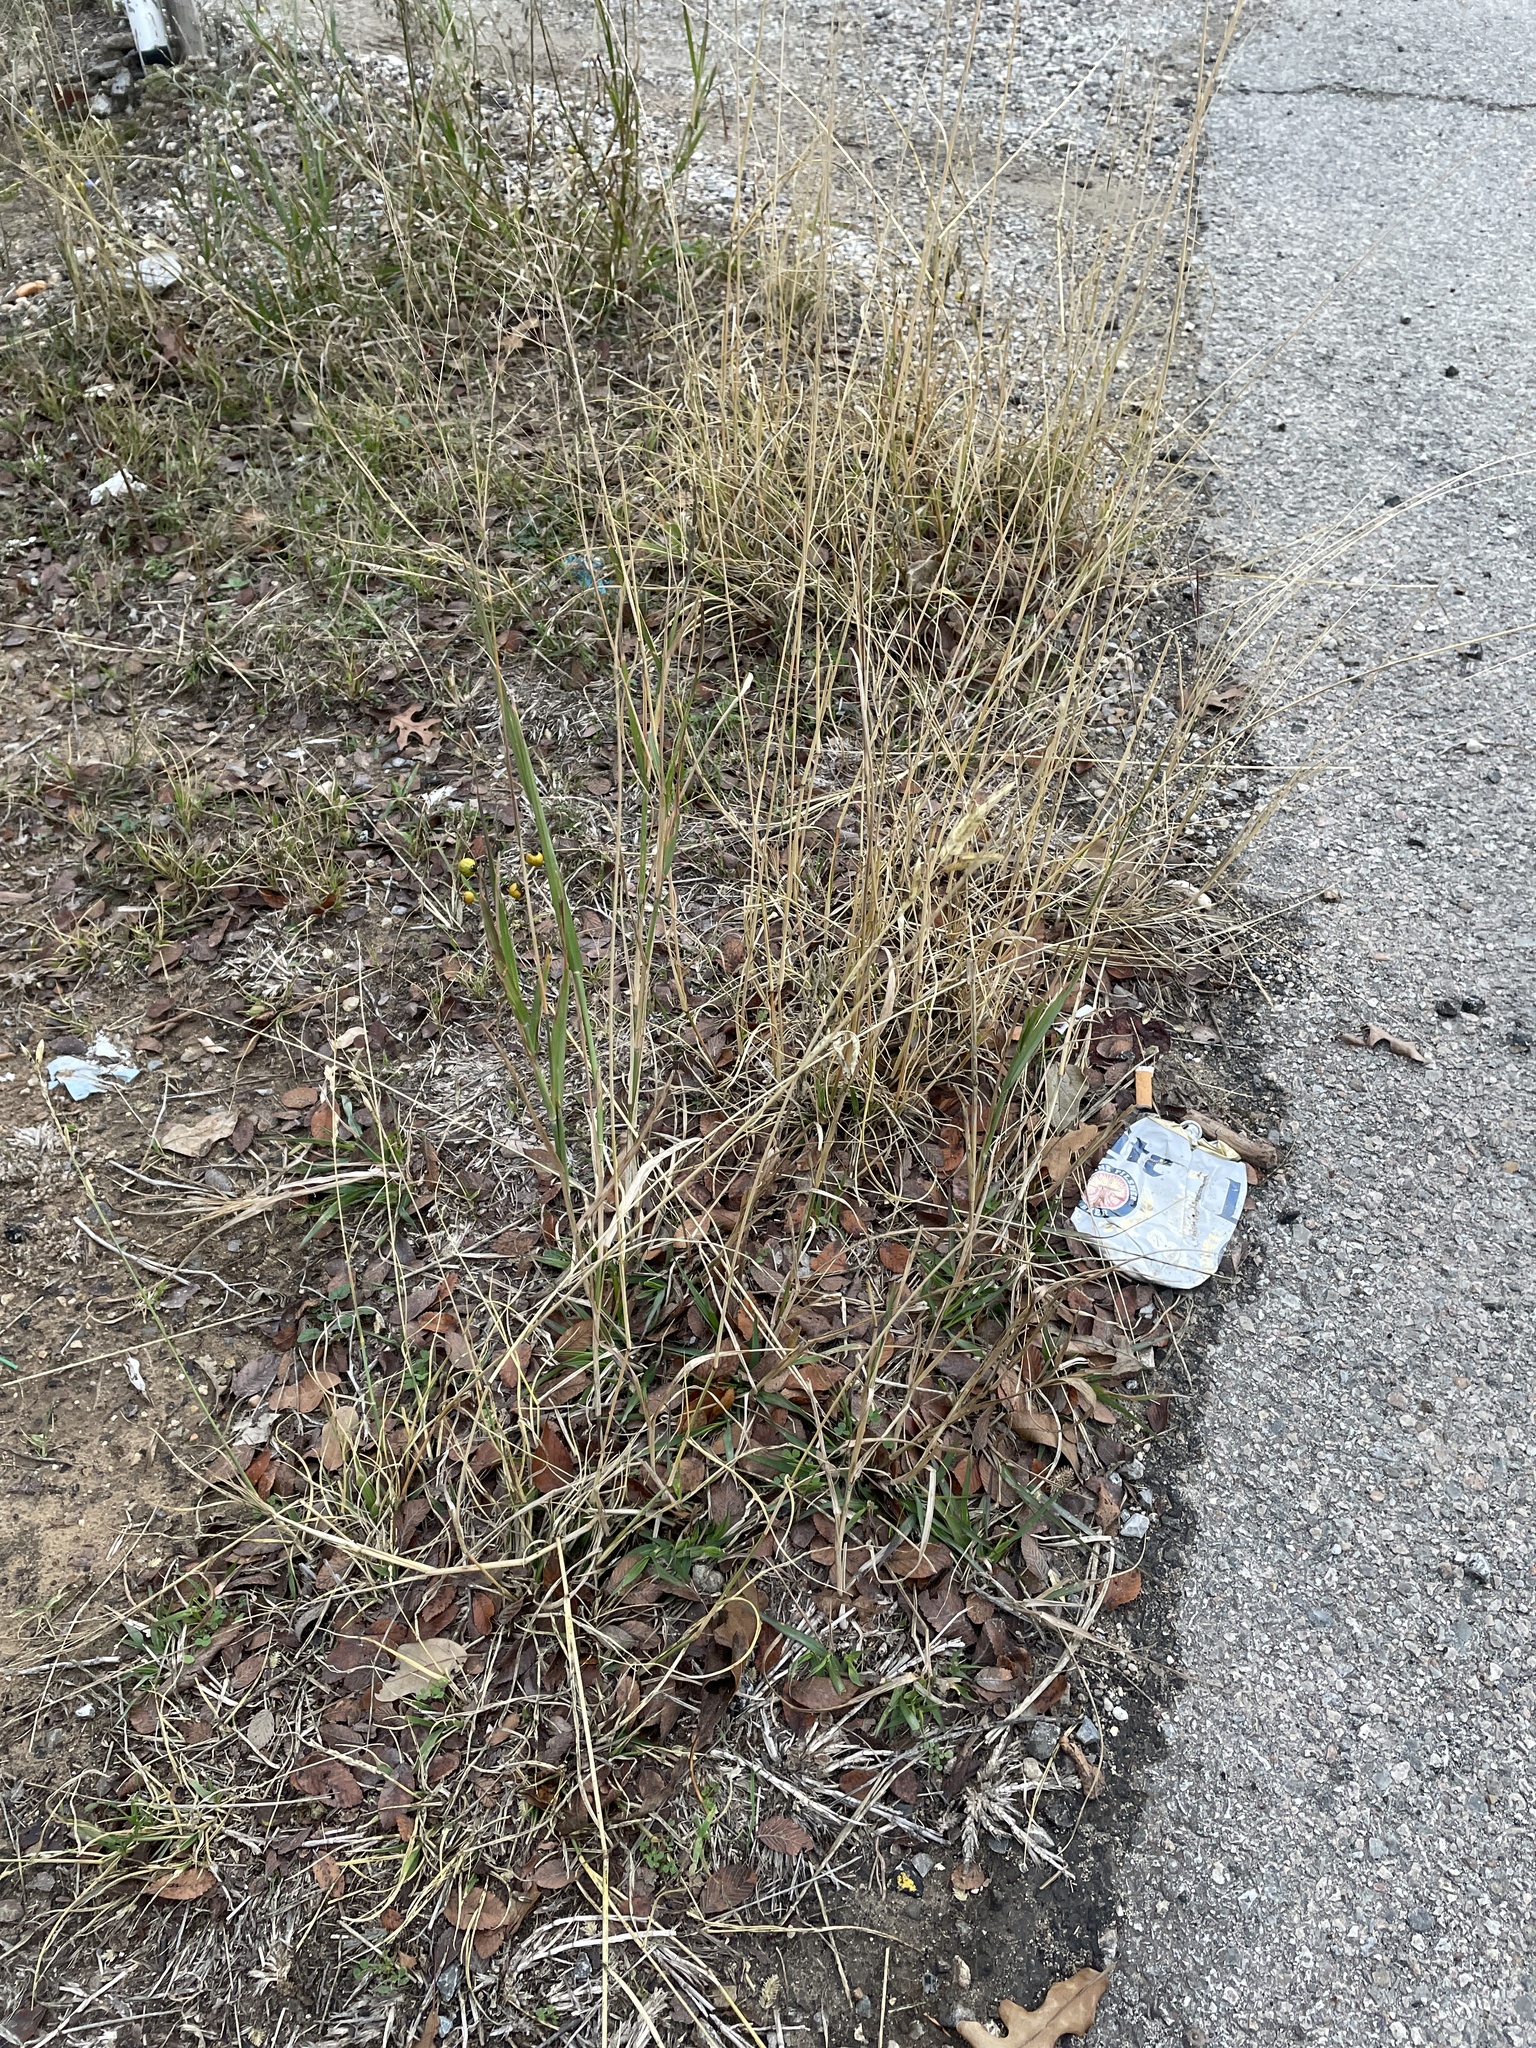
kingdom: Plantae
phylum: Tracheophyta
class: Liliopsida
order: Poales
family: Poaceae
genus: Eragrostis
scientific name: Eragrostis superba
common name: Wilman lovegrass
